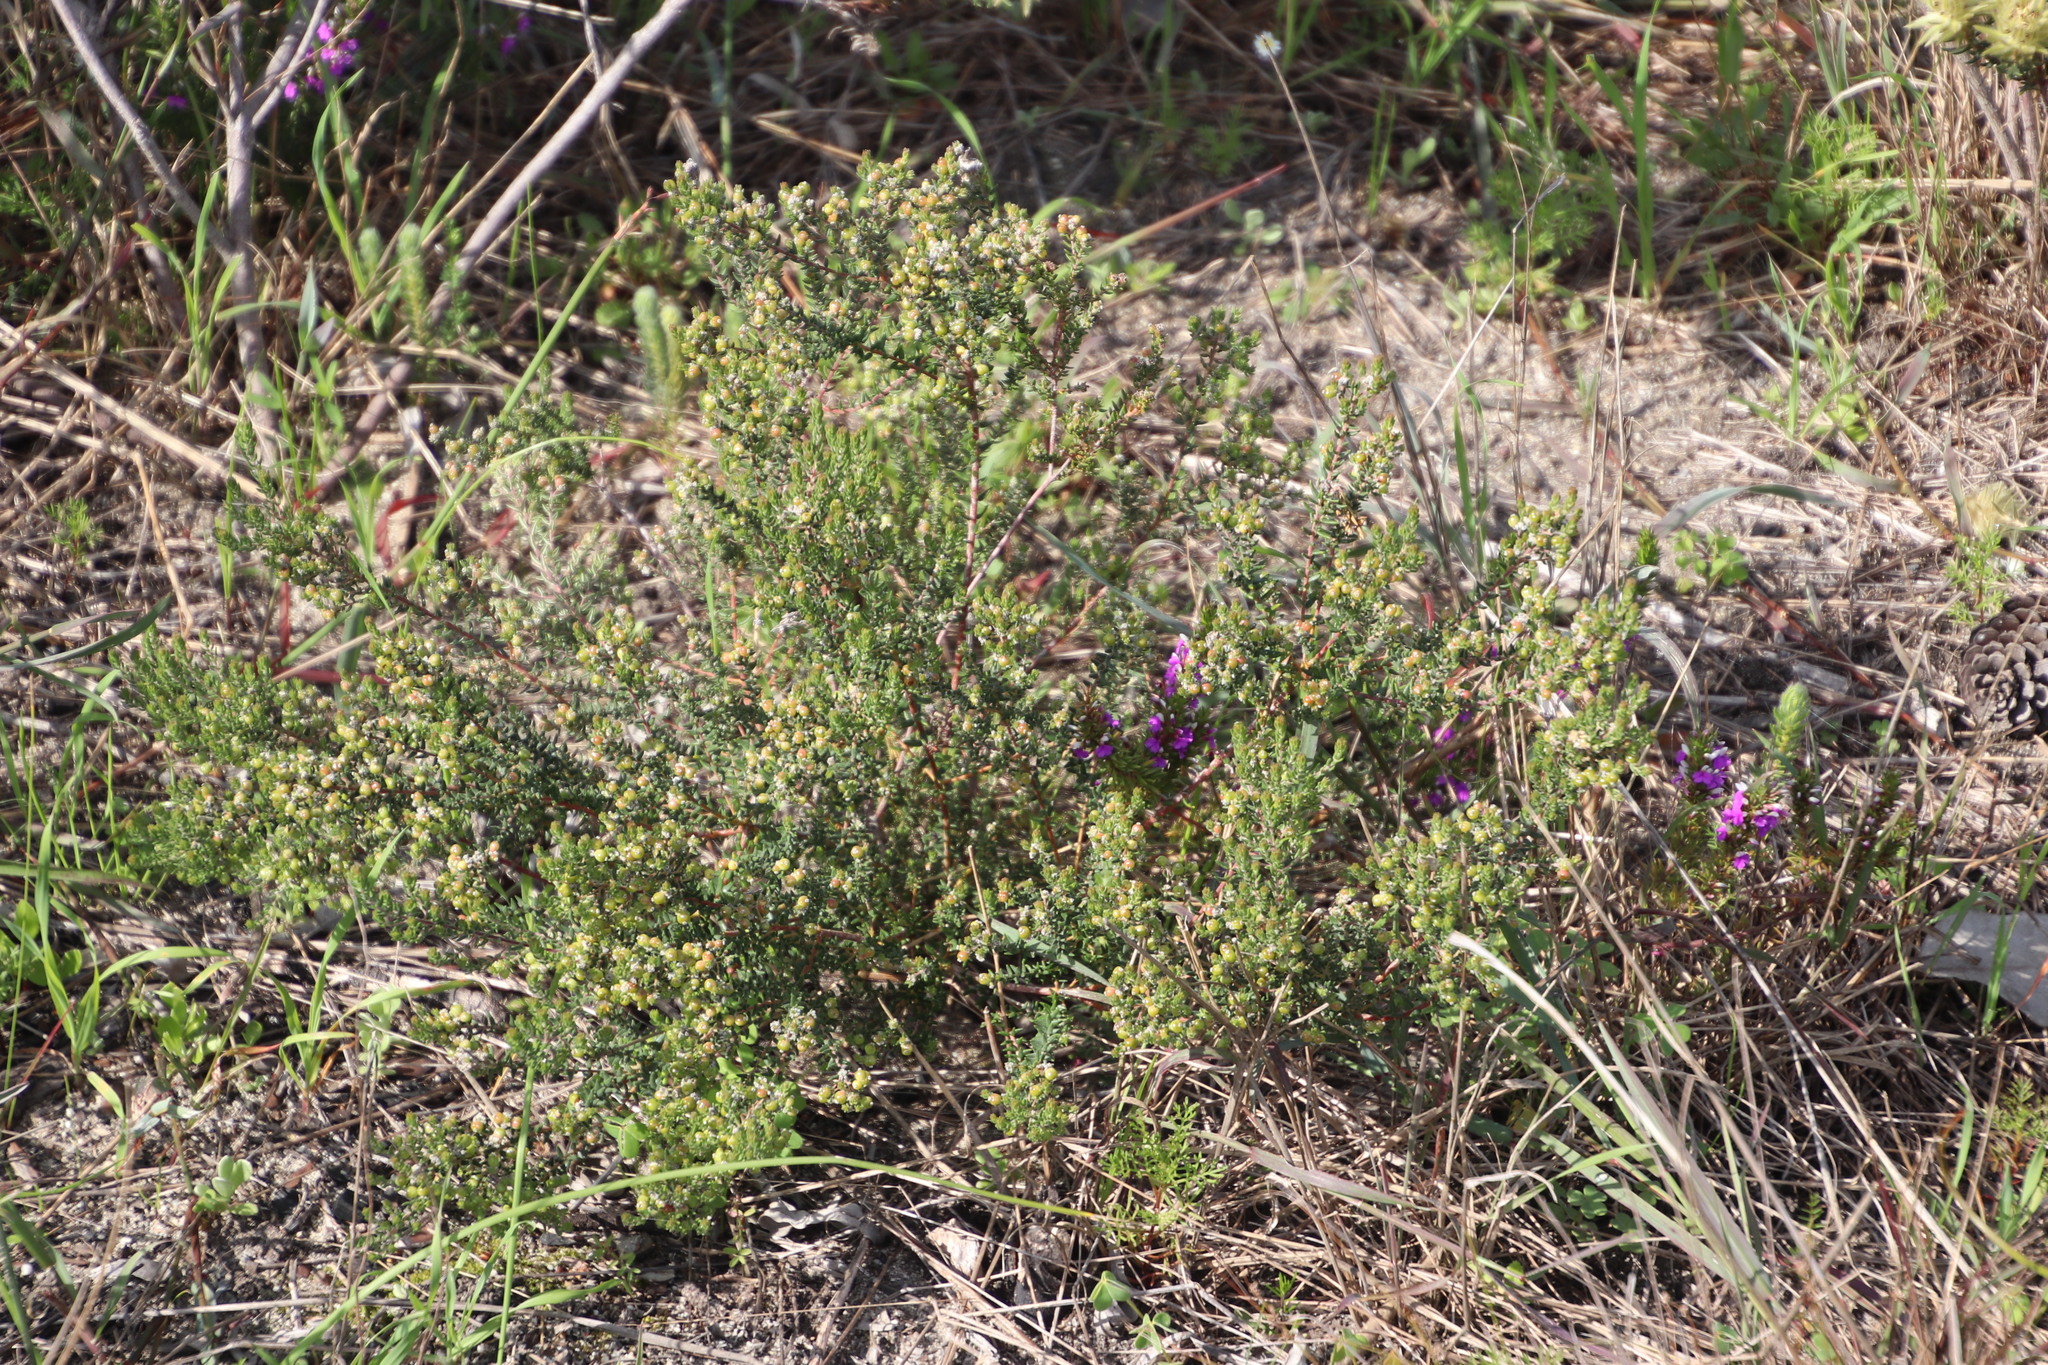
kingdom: Plantae
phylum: Tracheophyta
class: Magnoliopsida
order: Rosales
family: Rhamnaceae
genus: Phylica
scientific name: Phylica parviflora
